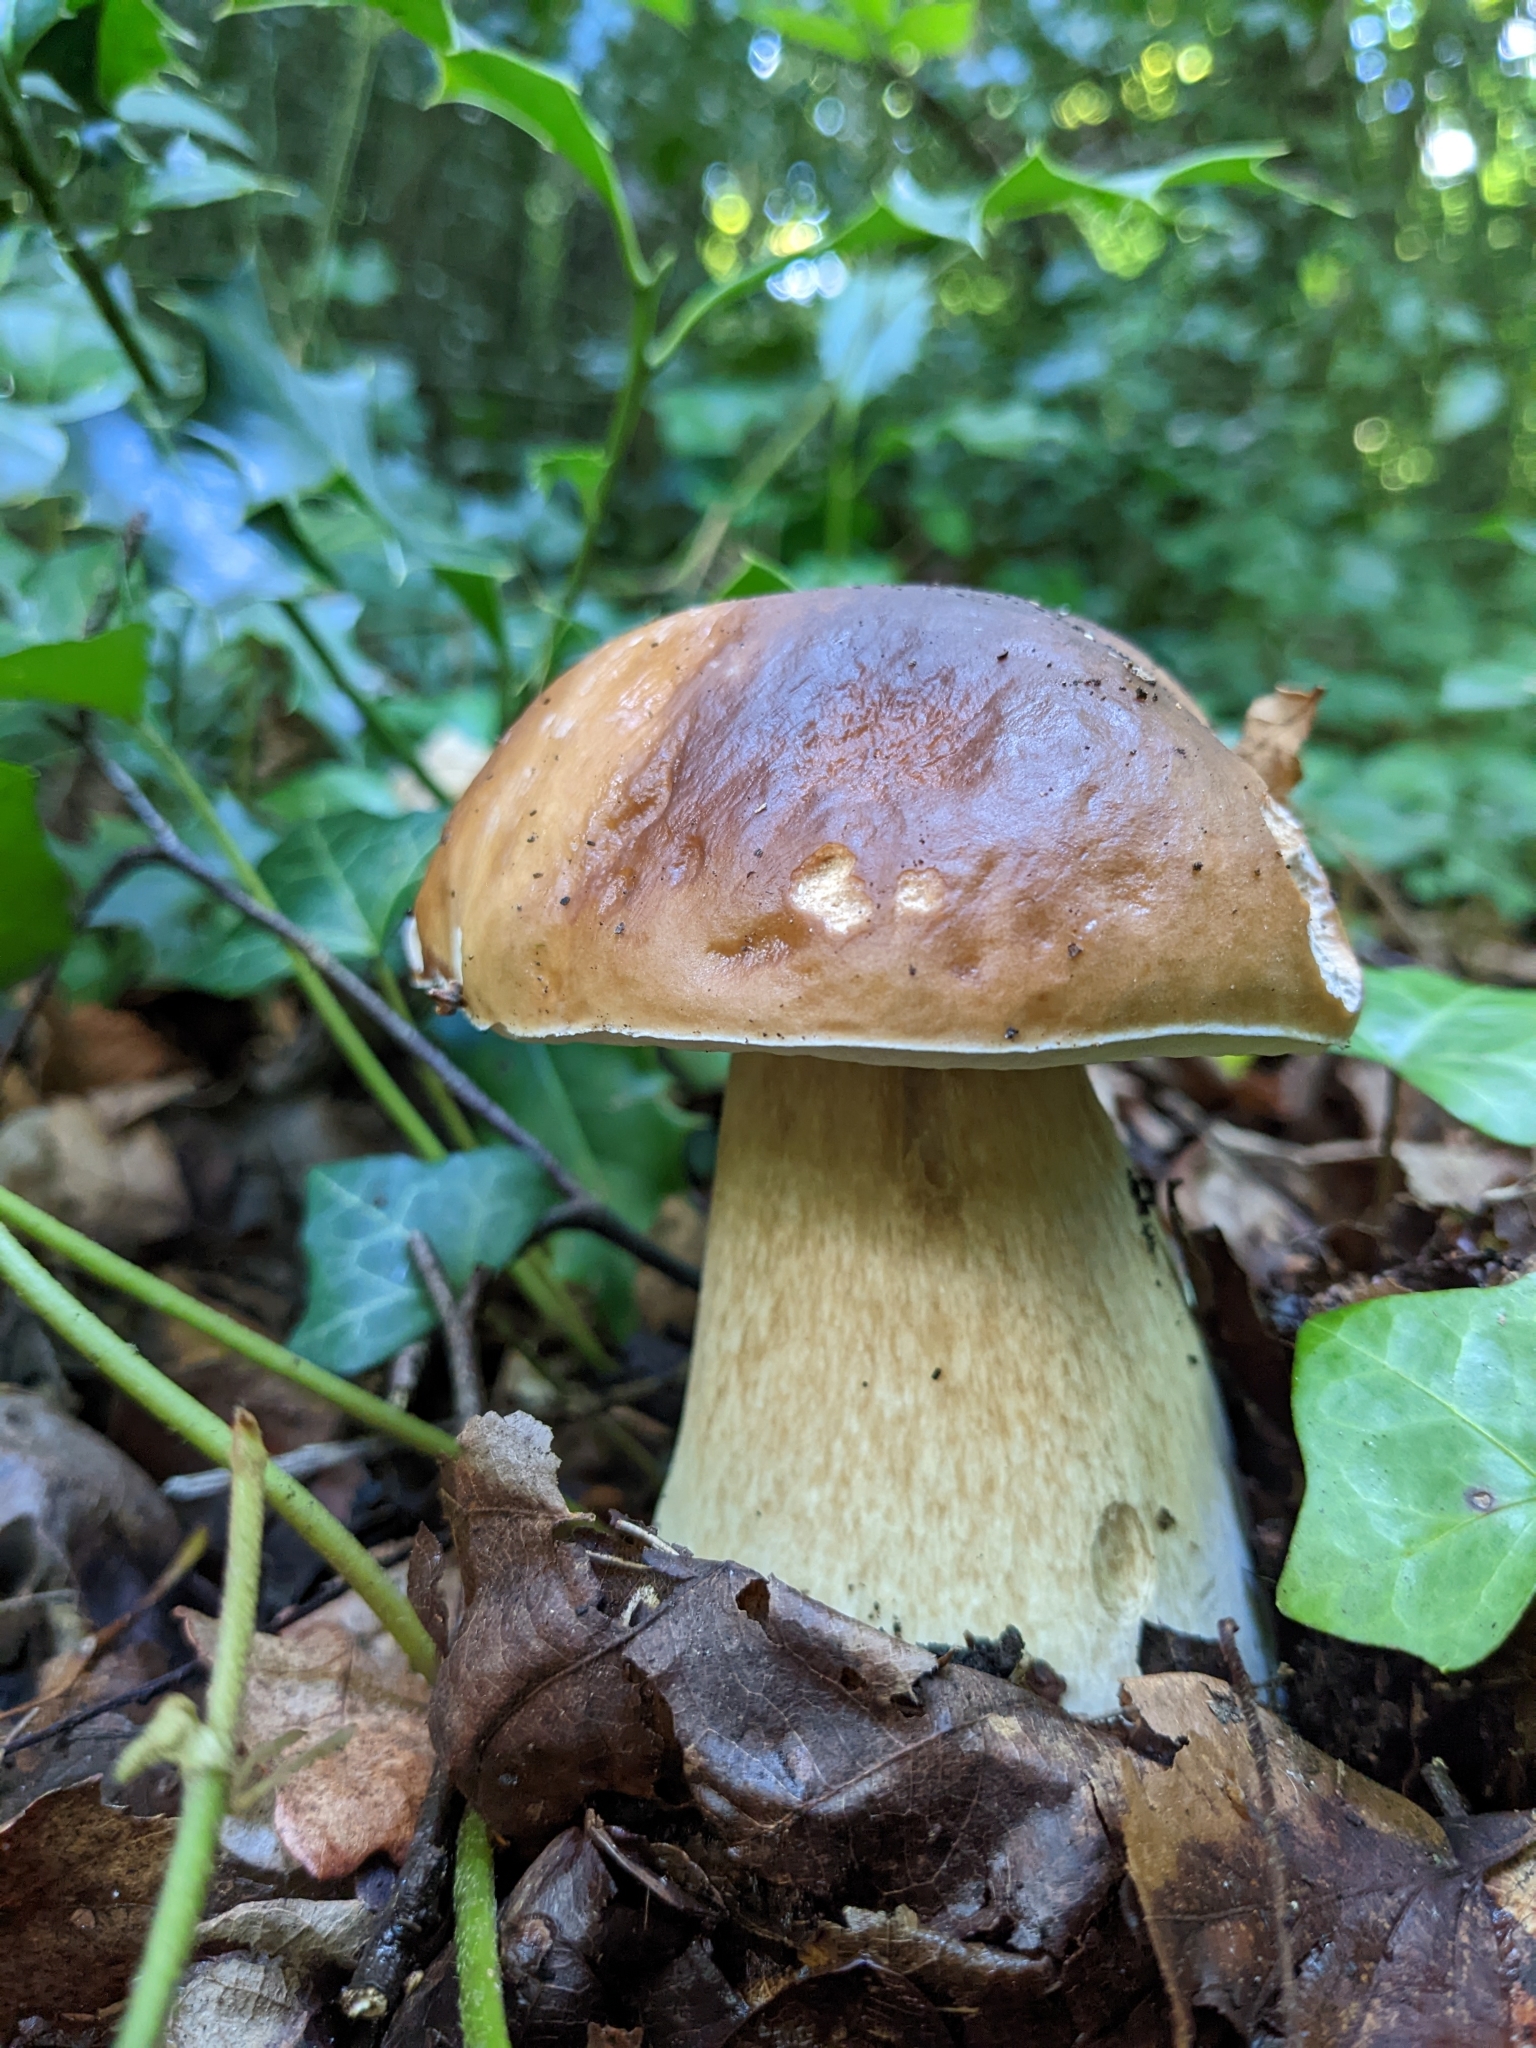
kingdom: Fungi
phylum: Basidiomycota
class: Agaricomycetes
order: Boletales
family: Boletaceae
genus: Boletus
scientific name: Boletus edulis
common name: Cep
